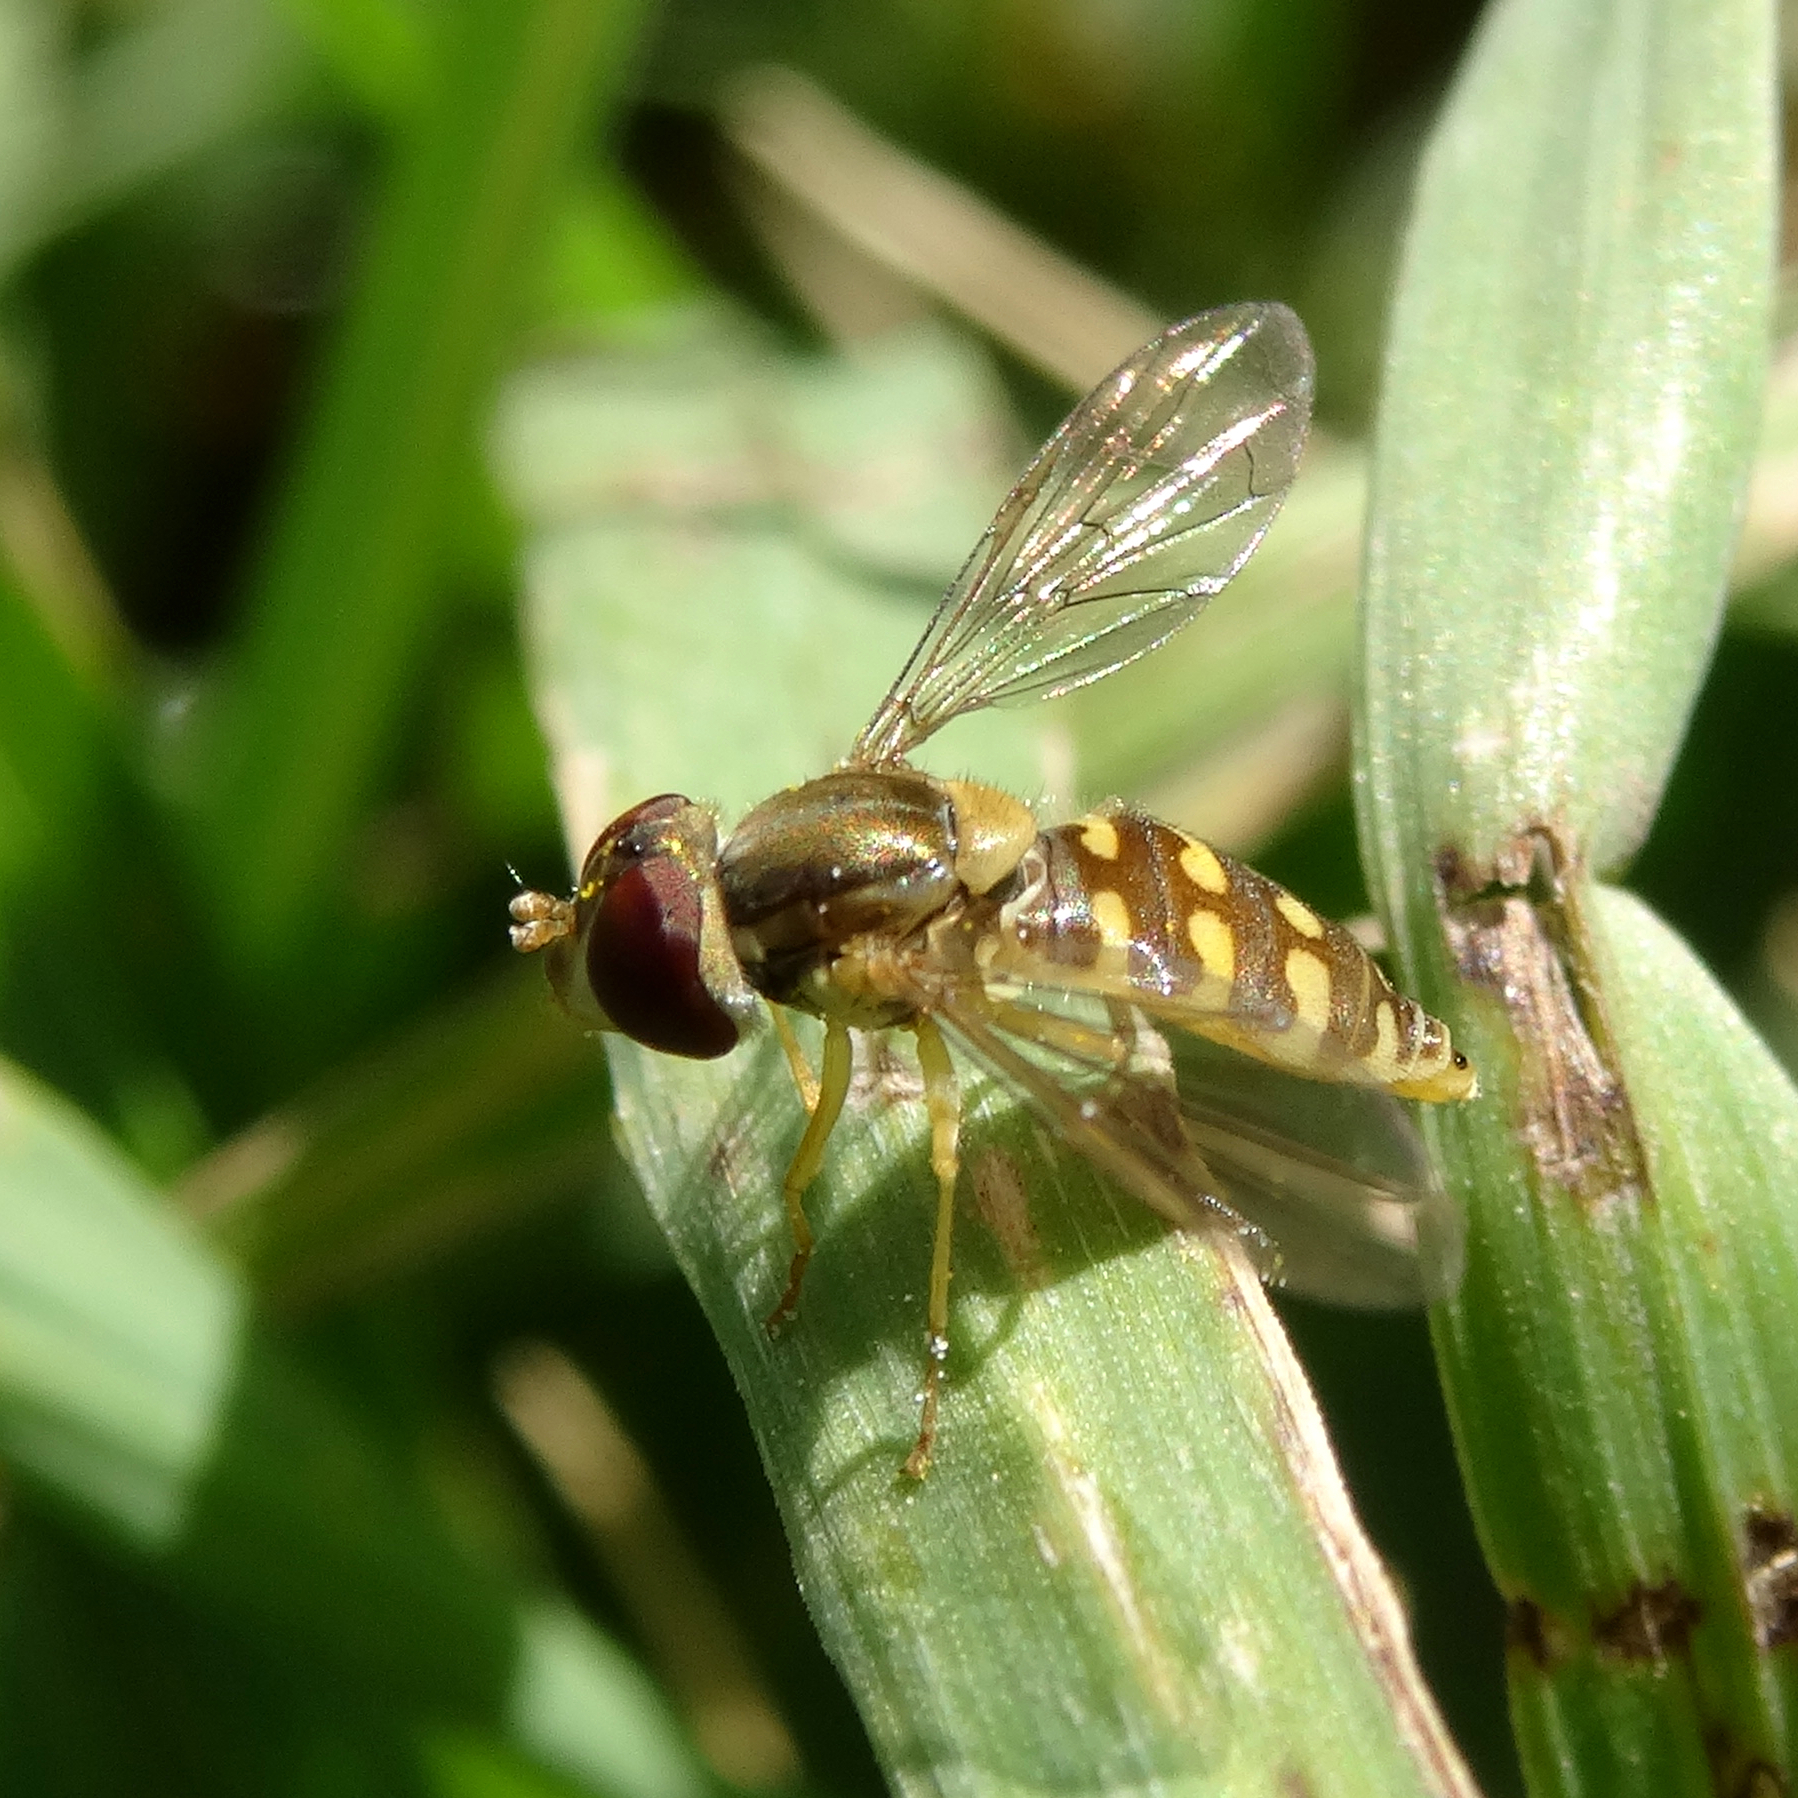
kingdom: Animalia
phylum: Arthropoda
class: Insecta
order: Diptera
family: Syrphidae
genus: Toxomerus
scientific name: Toxomerus vertebratus
